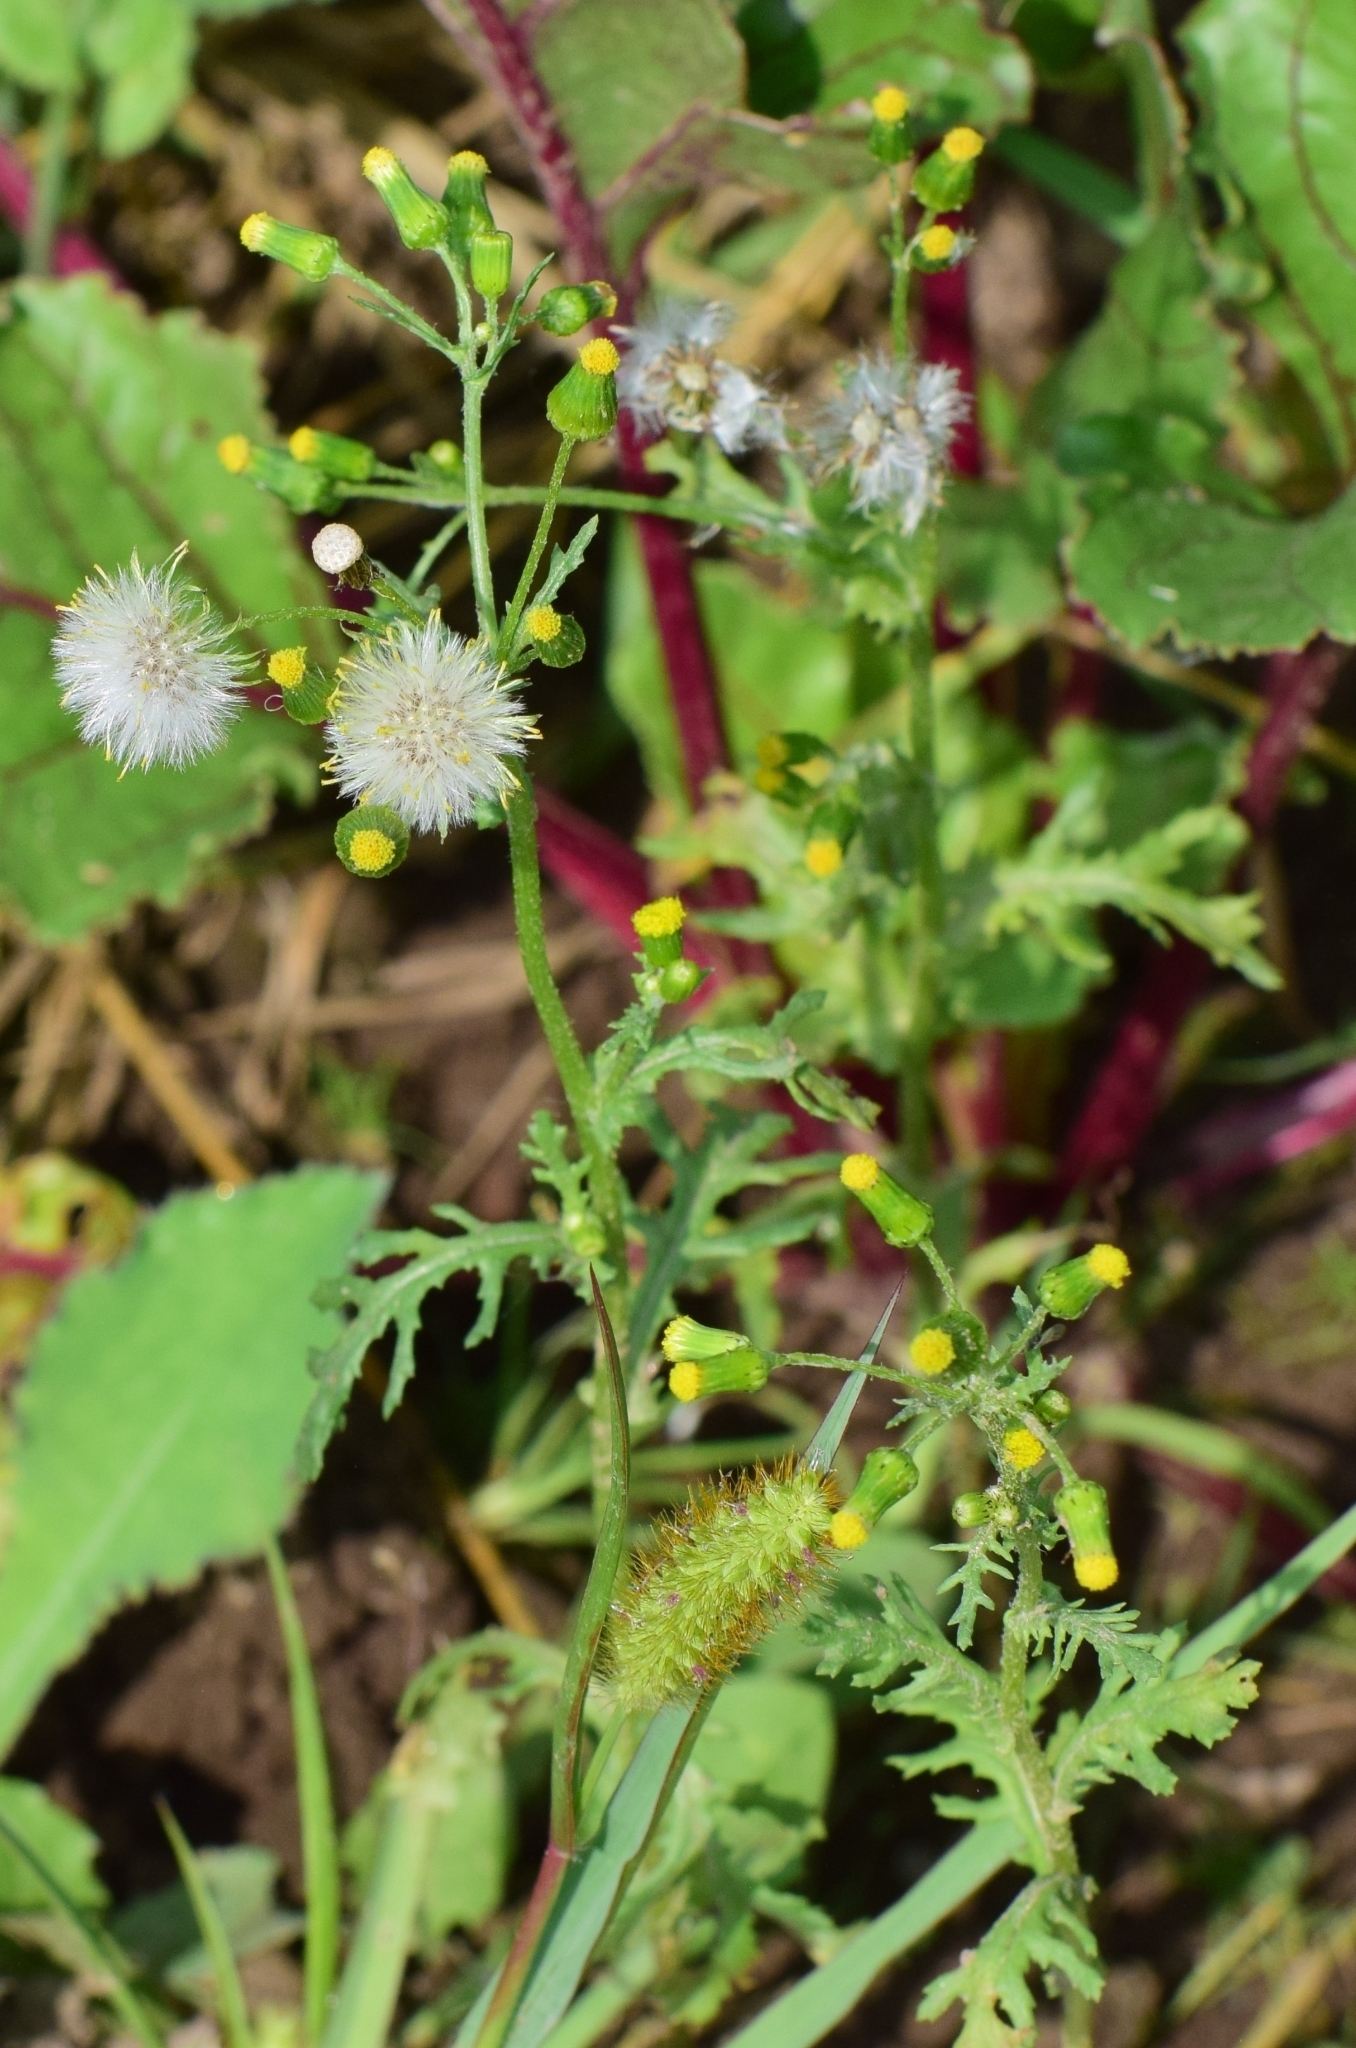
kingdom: Plantae
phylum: Tracheophyta
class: Magnoliopsida
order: Asterales
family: Asteraceae
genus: Senecio
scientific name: Senecio vulgaris
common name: Old-man-in-the-spring
